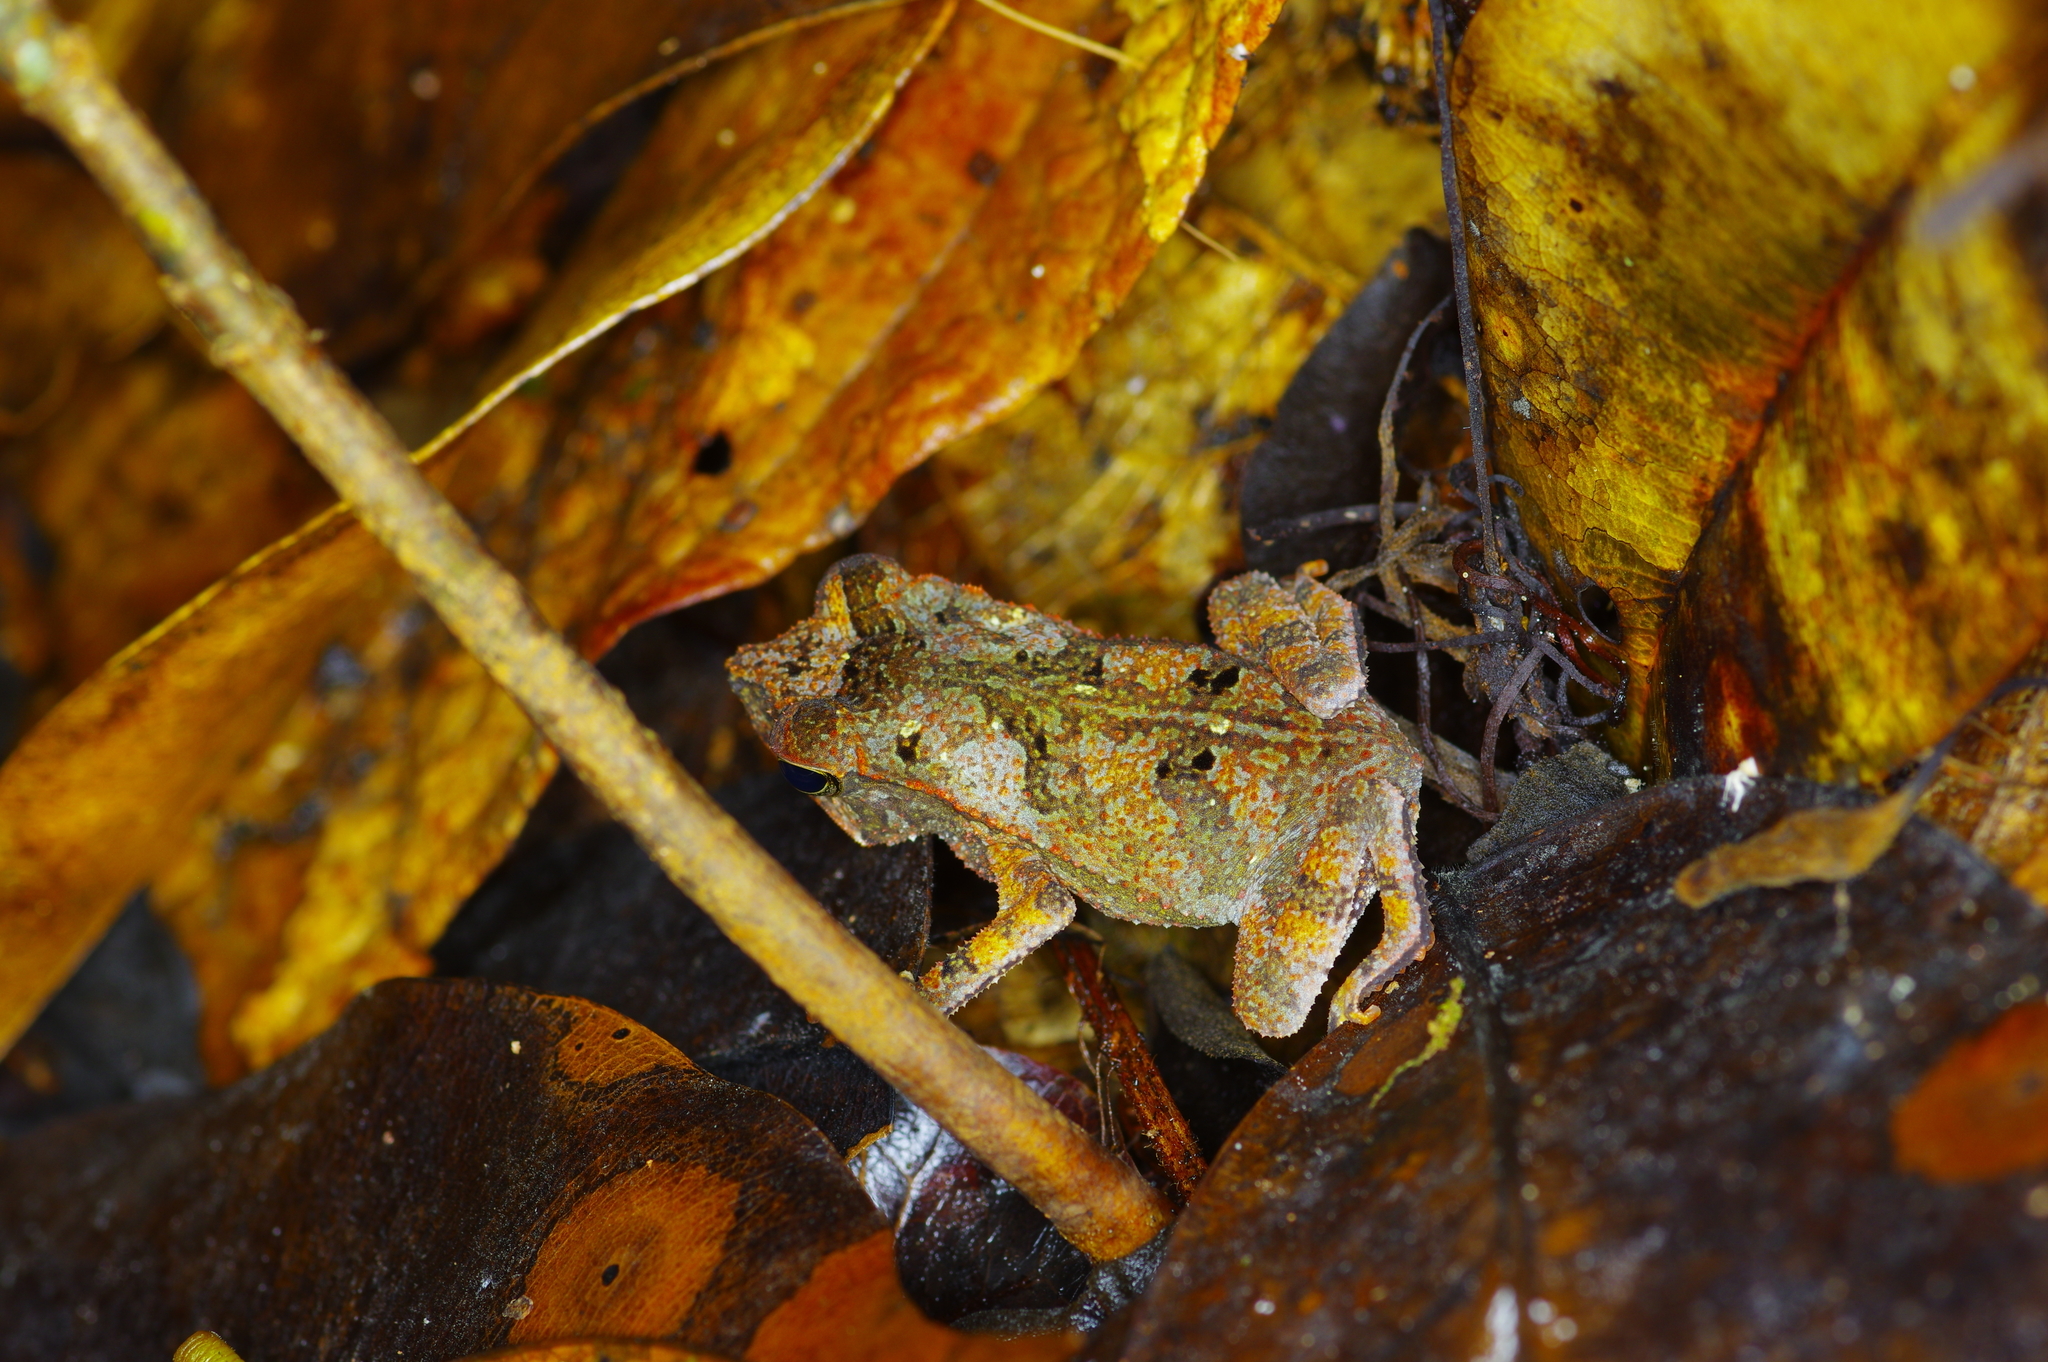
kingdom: Animalia
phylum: Chordata
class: Amphibia
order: Anura
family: Bufonidae
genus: Rhinella
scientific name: Rhinella margaritifera
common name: Mitred toad
